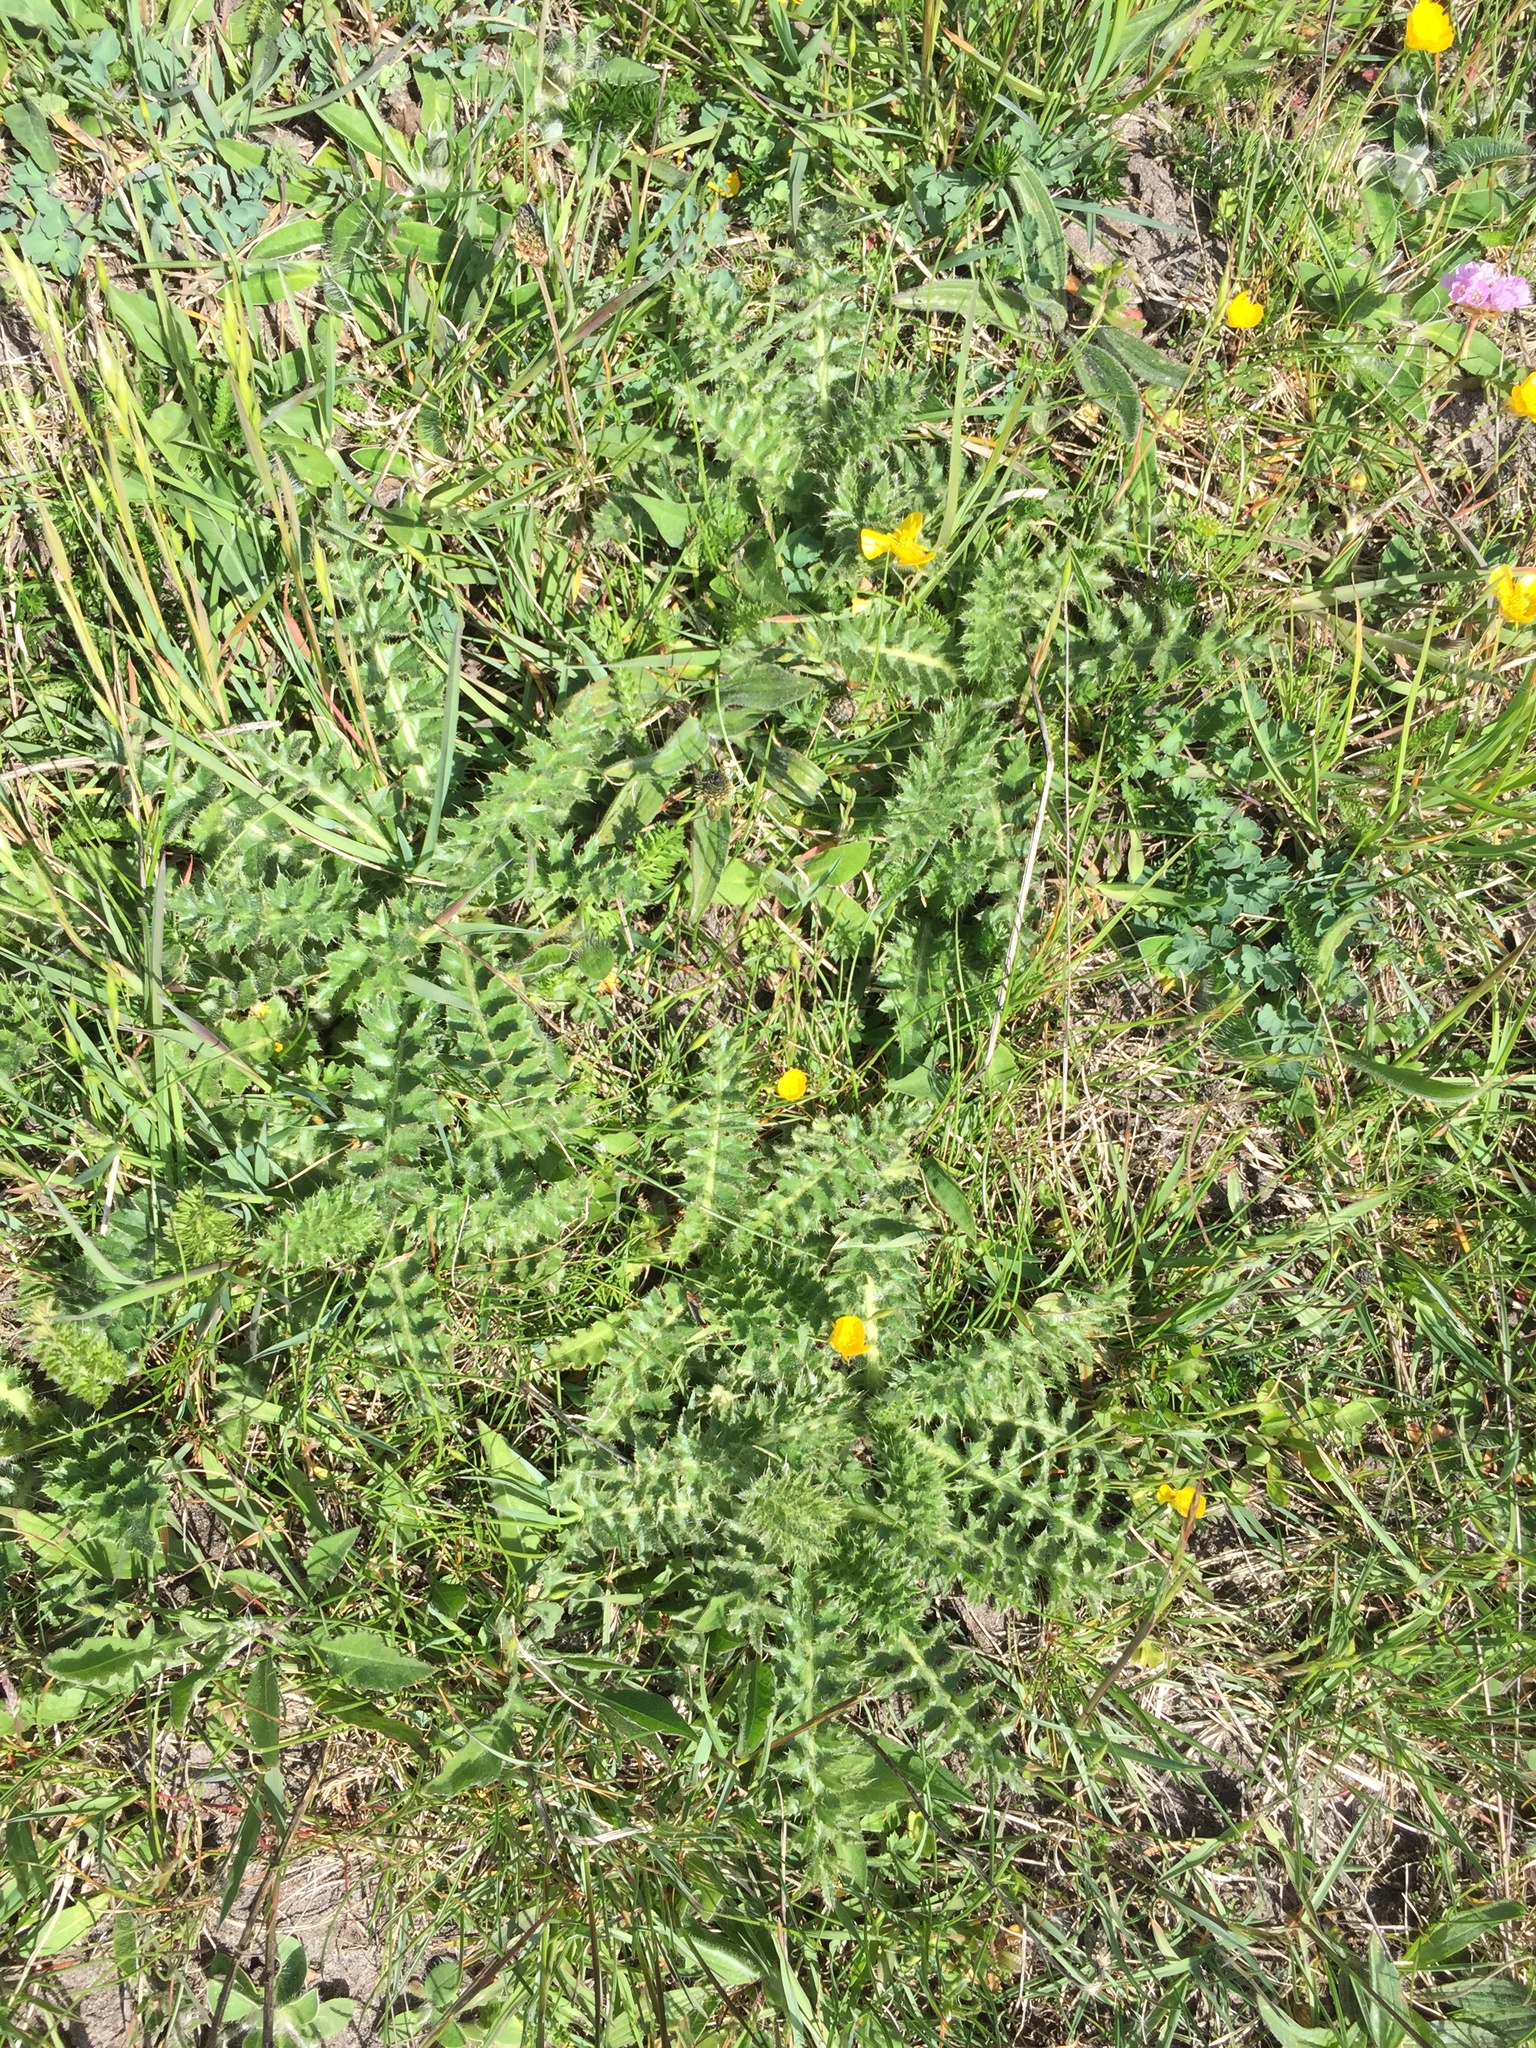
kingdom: Plantae
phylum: Tracheophyta
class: Magnoliopsida
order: Asterales
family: Asteraceae
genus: Cirsium
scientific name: Cirsium acaulon
